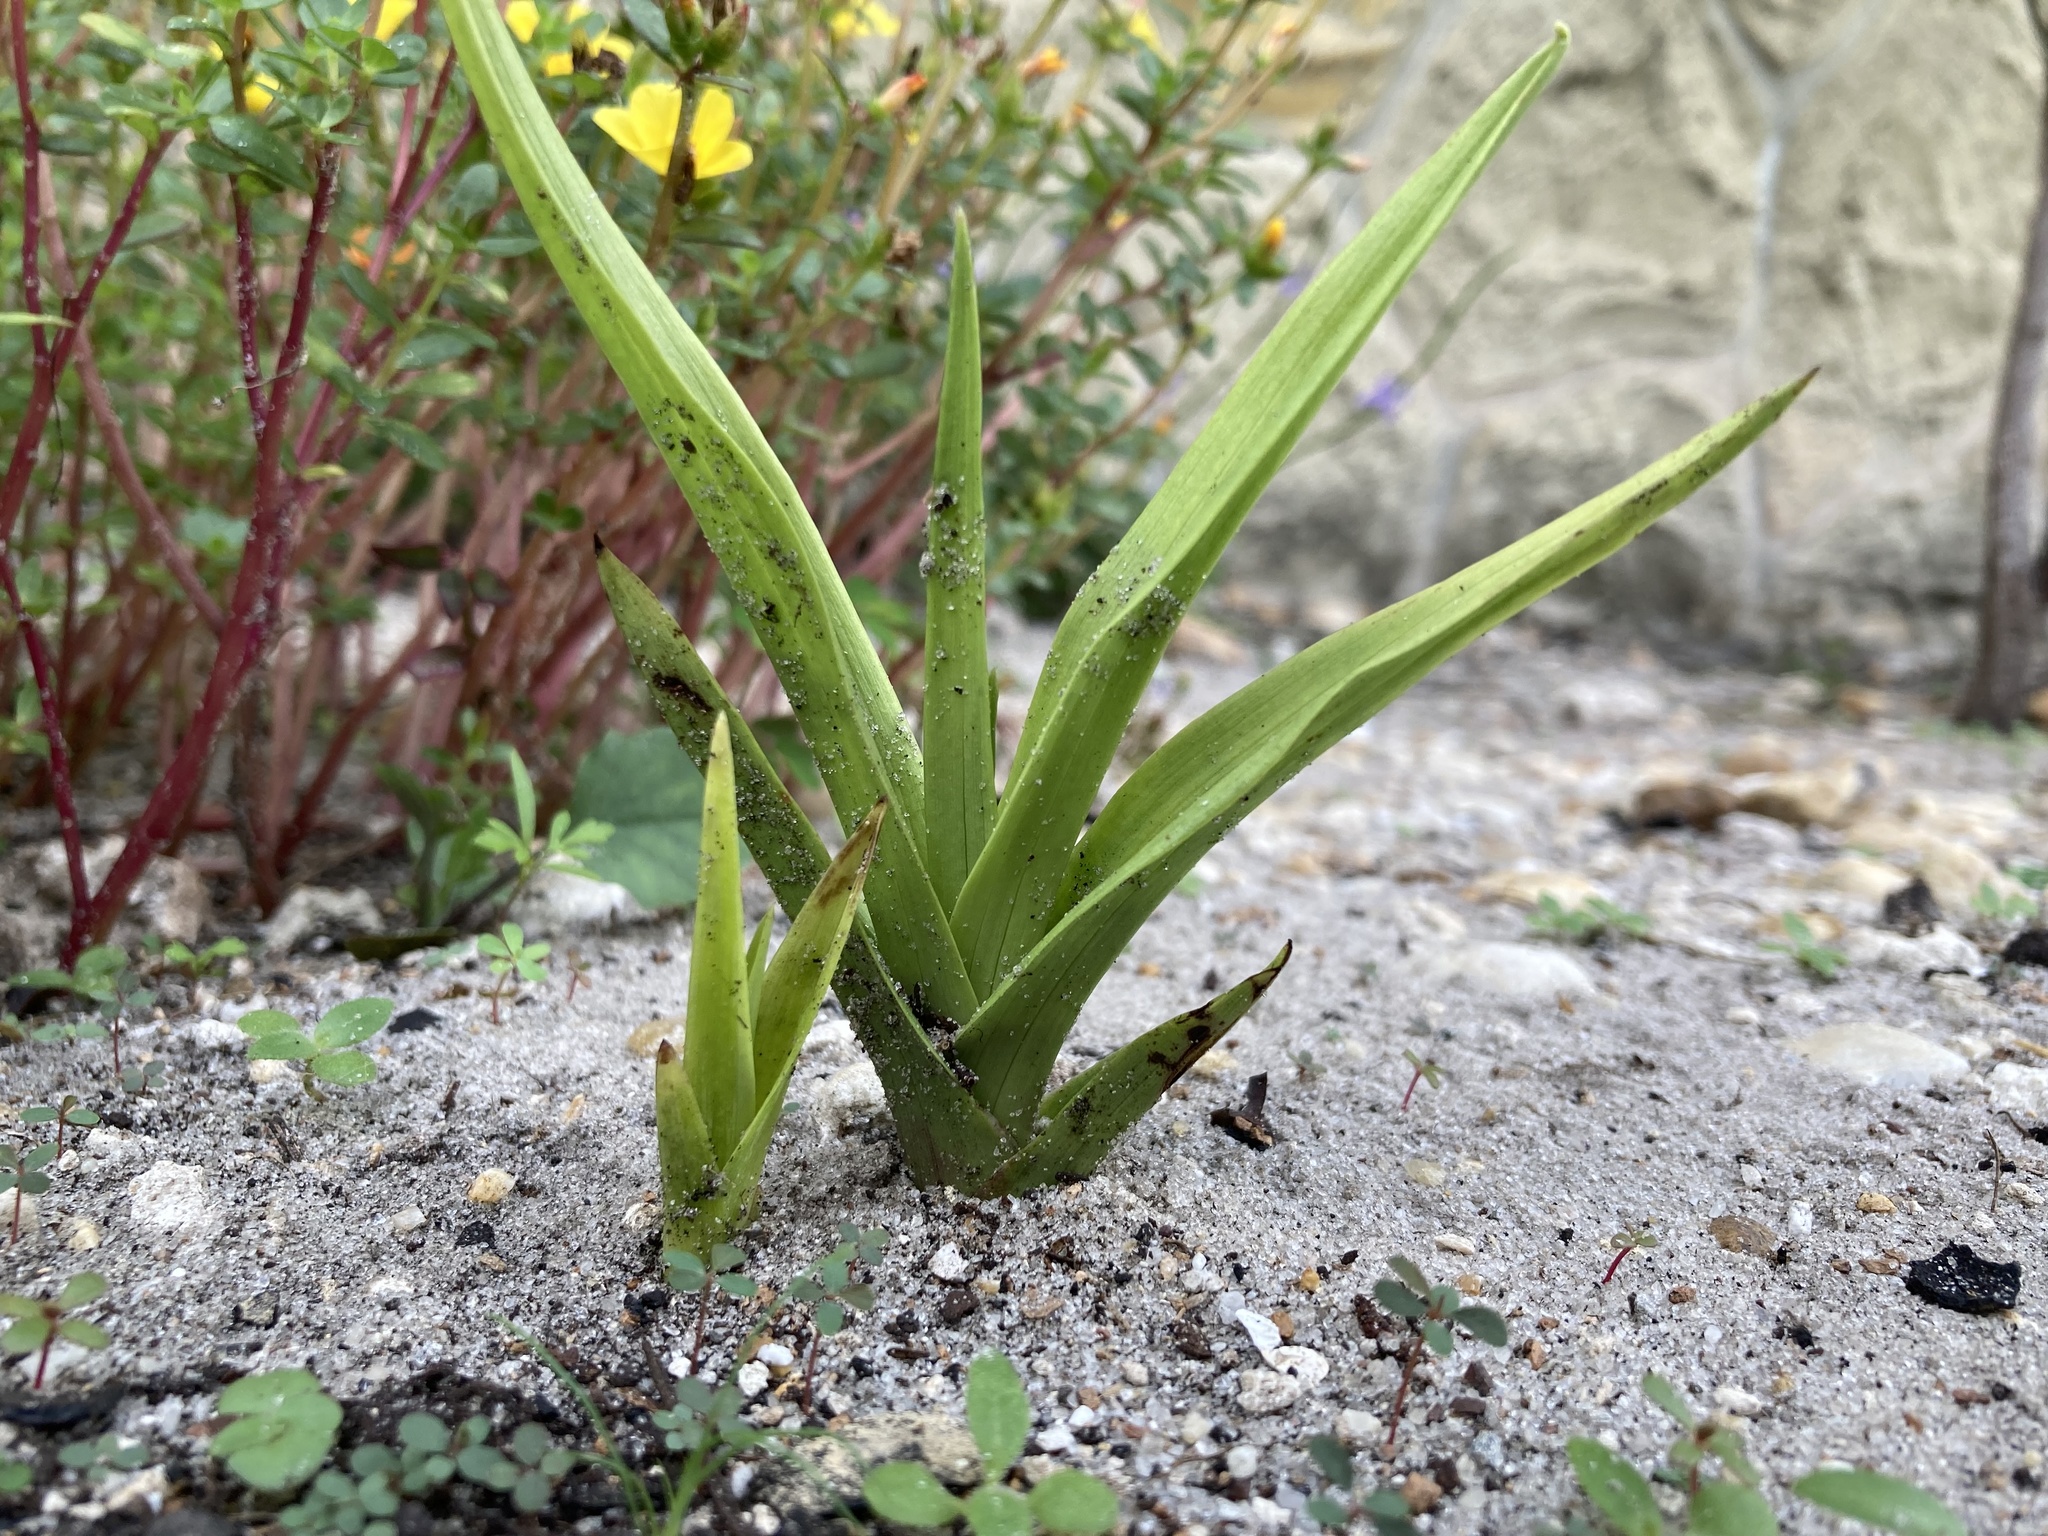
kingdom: Plantae
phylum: Tracheophyta
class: Liliopsida
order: Asparagales
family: Orchidaceae
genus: Eulophia
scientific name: Eulophia graminea
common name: Orchid
